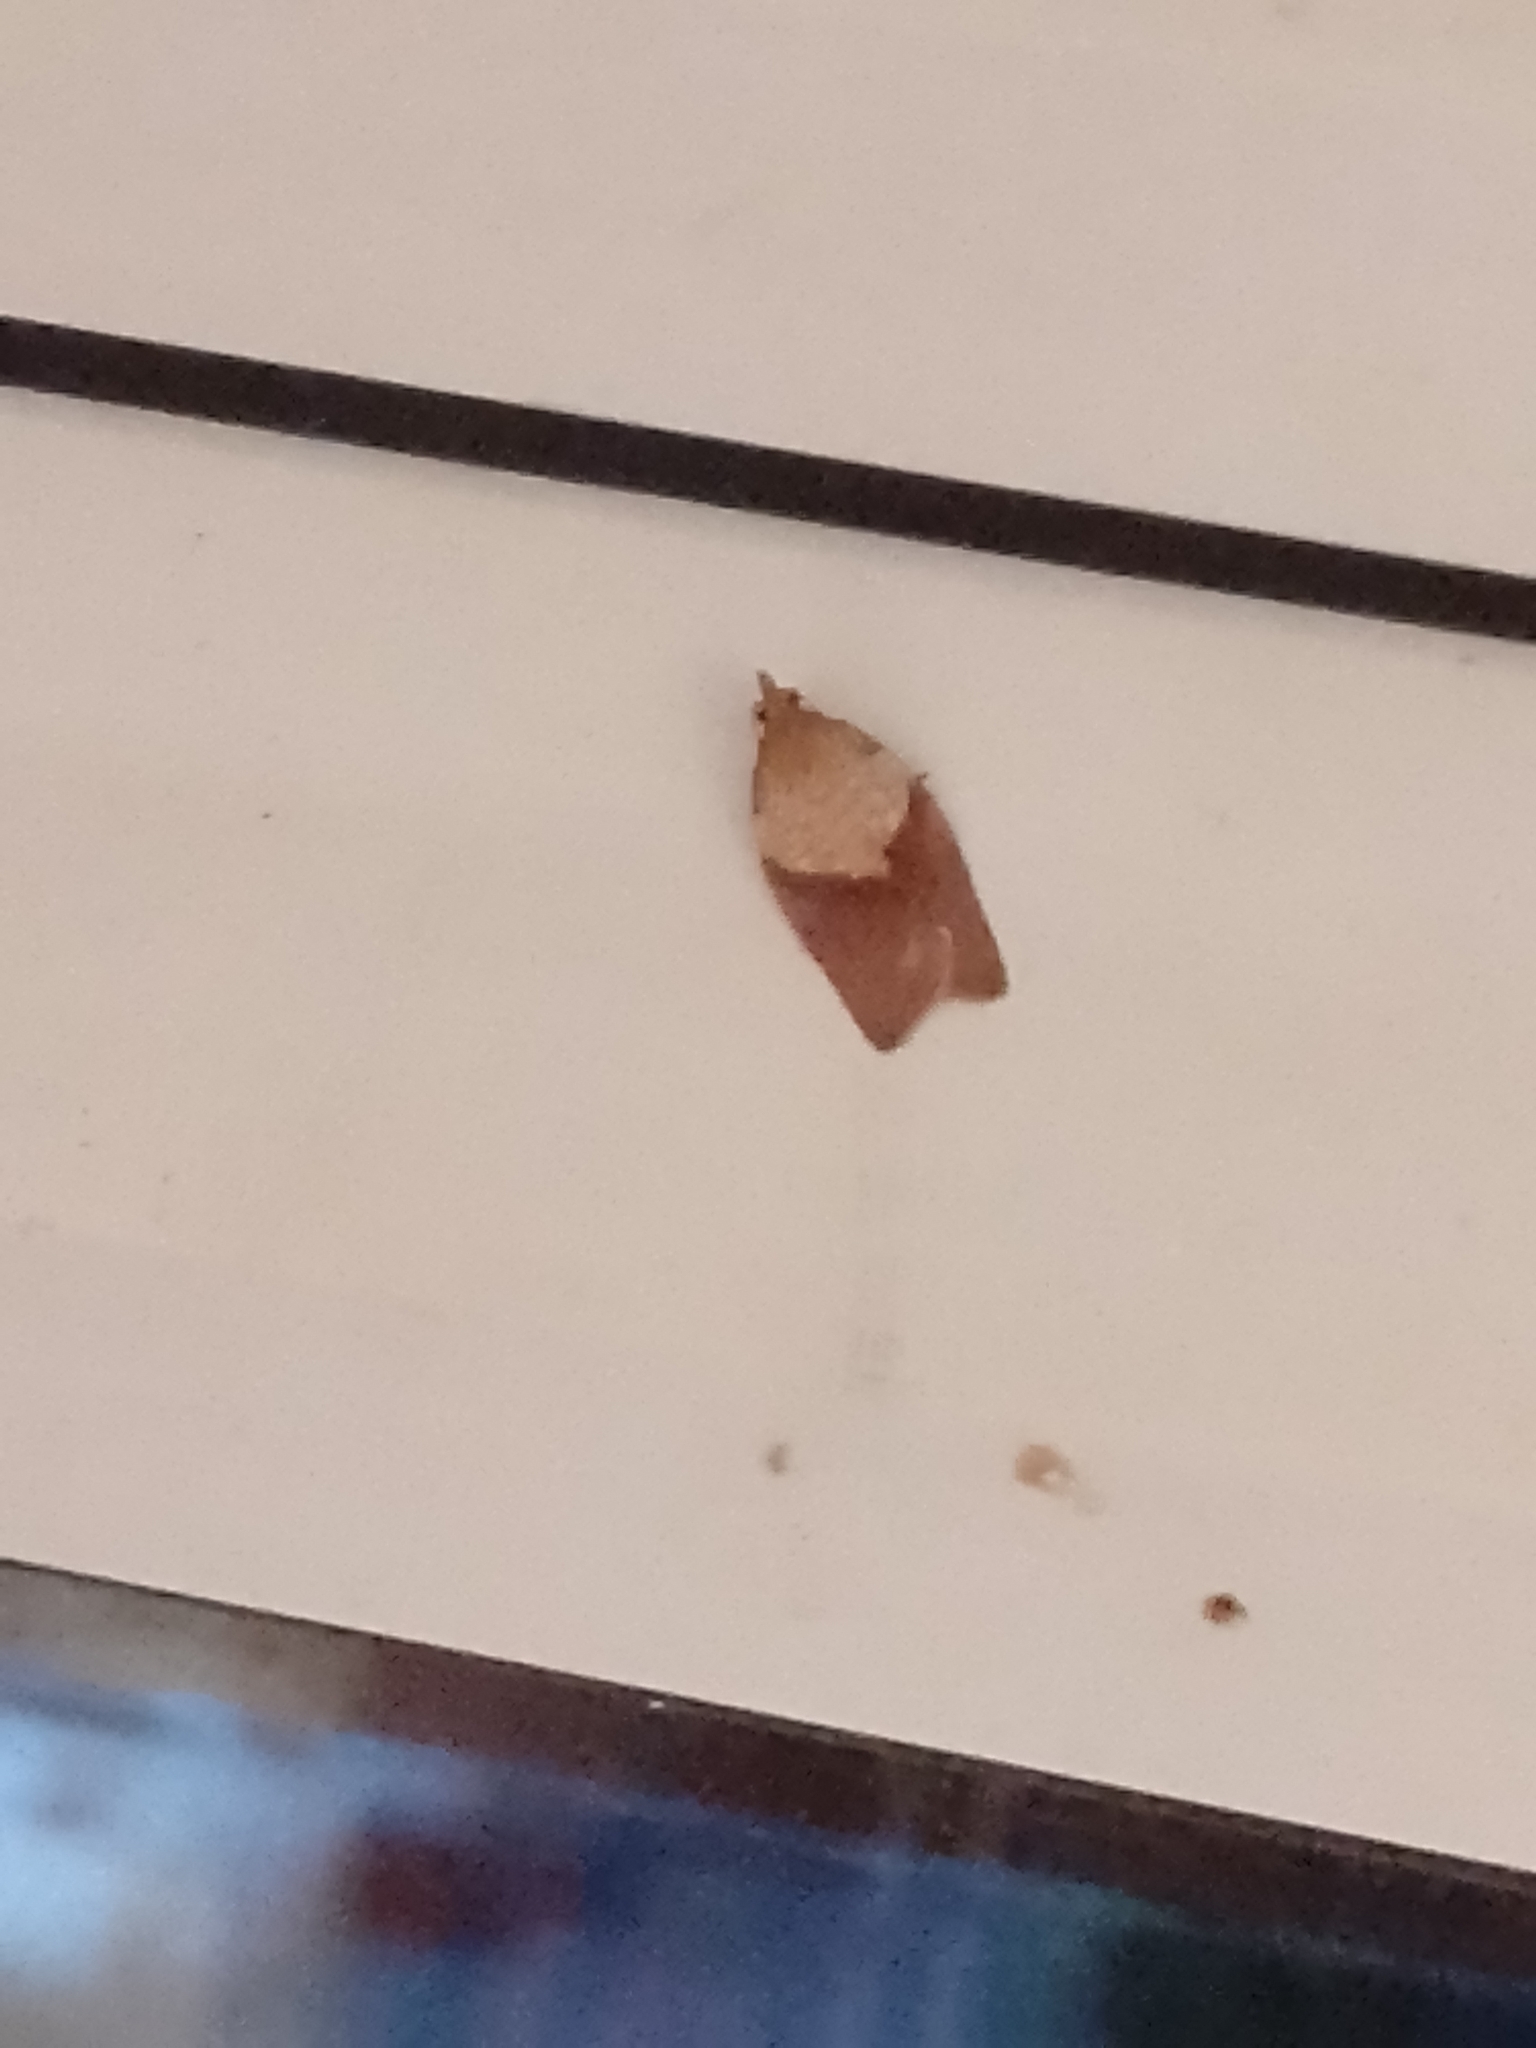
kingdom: Animalia
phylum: Arthropoda
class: Insecta
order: Lepidoptera
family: Tortricidae
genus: Epiphyas
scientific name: Epiphyas postvittana
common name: Light brown apple moth
